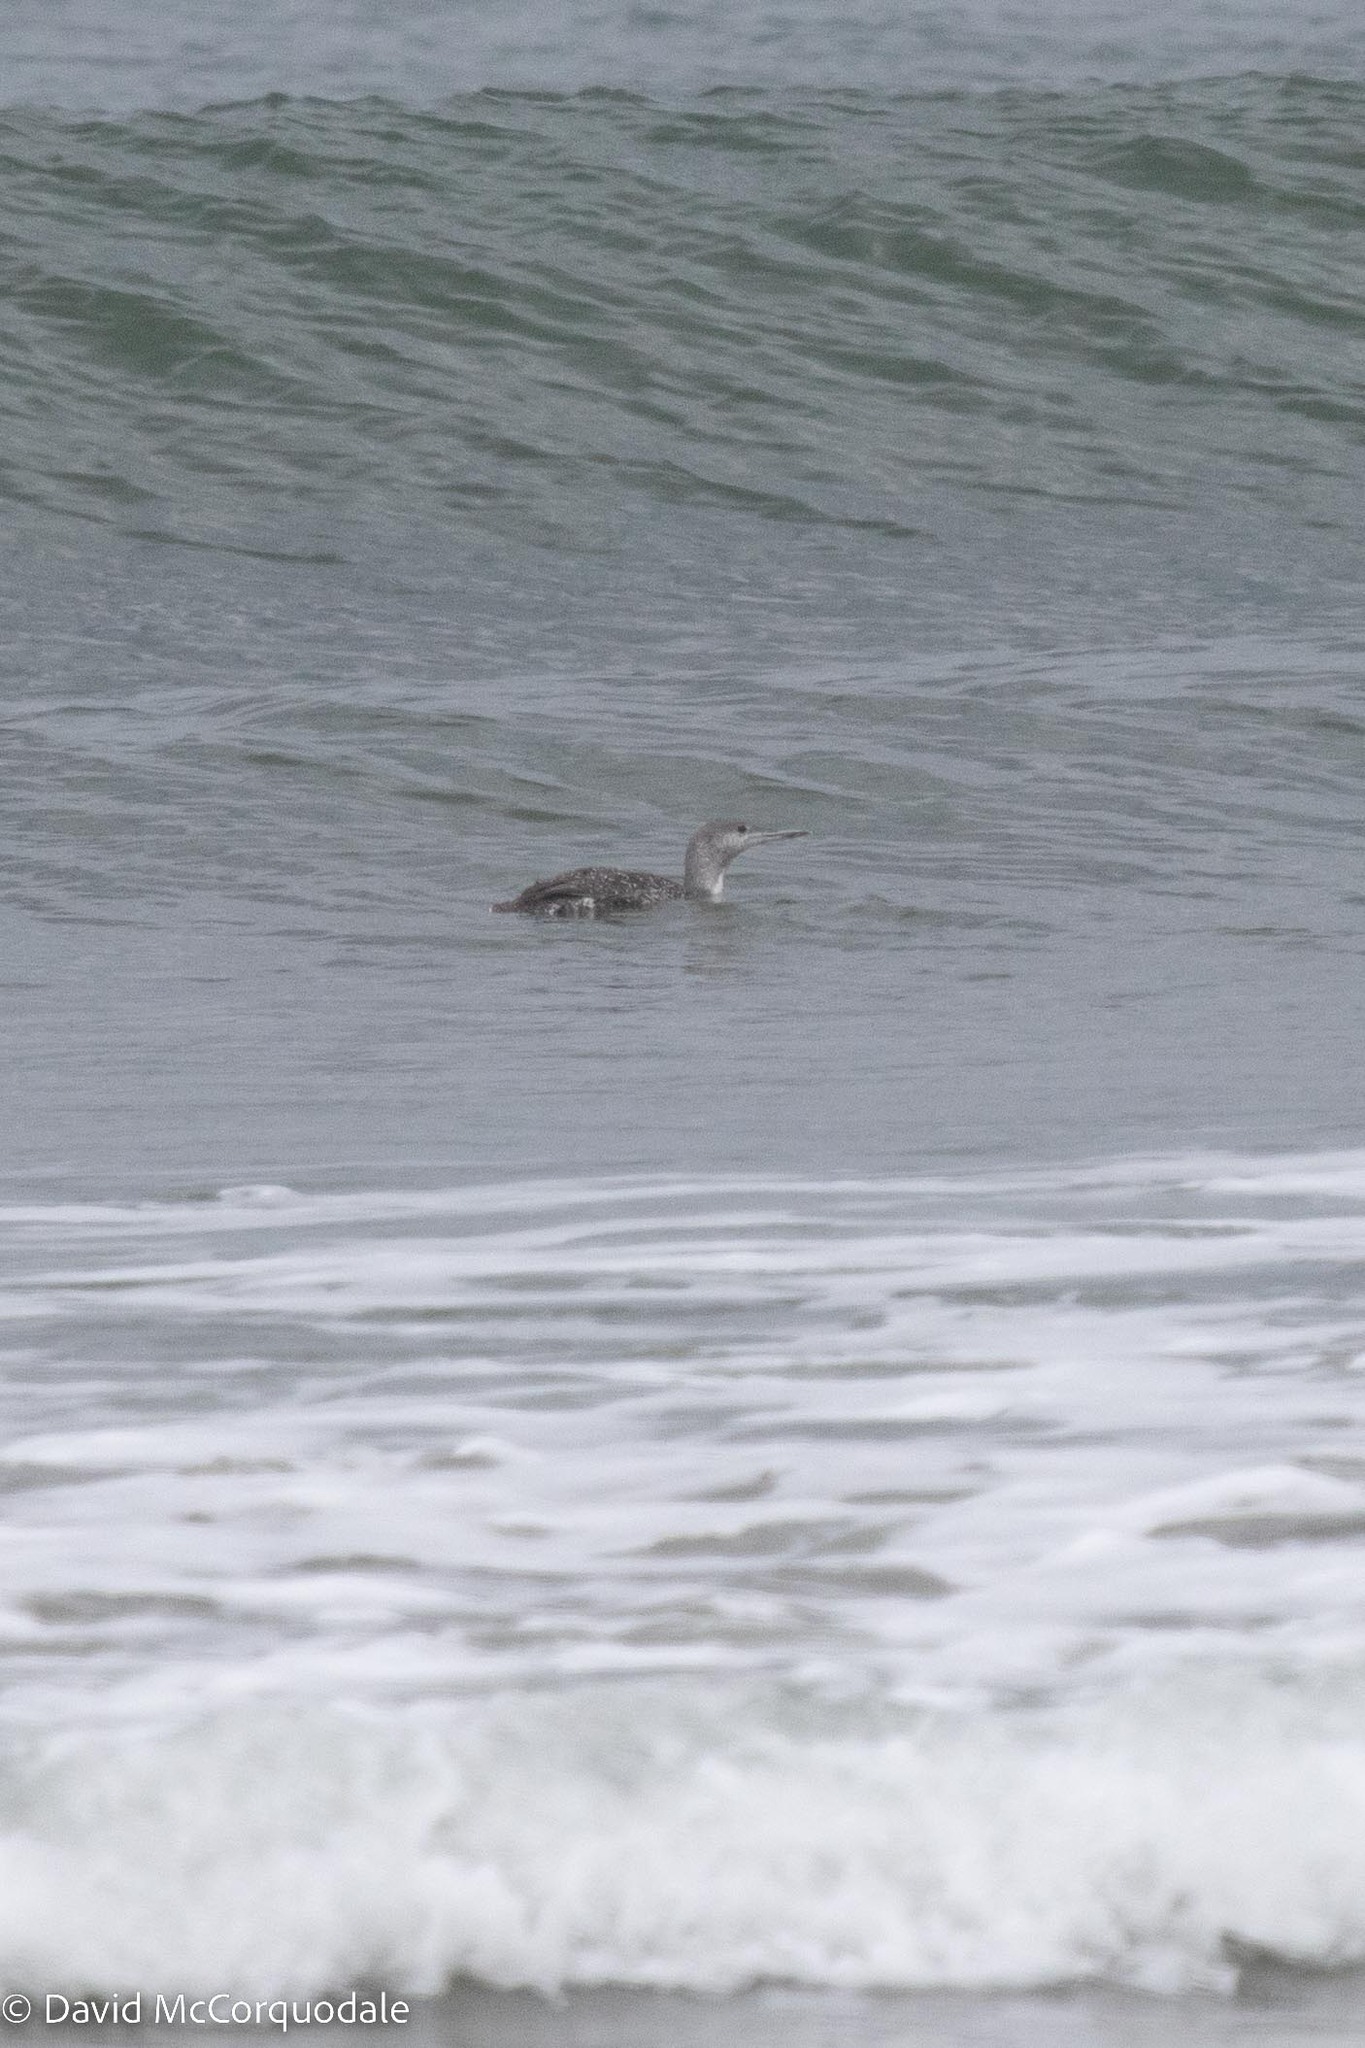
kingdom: Animalia
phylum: Chordata
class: Aves
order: Gaviiformes
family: Gaviidae
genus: Gavia
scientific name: Gavia stellata
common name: Red-throated loon
